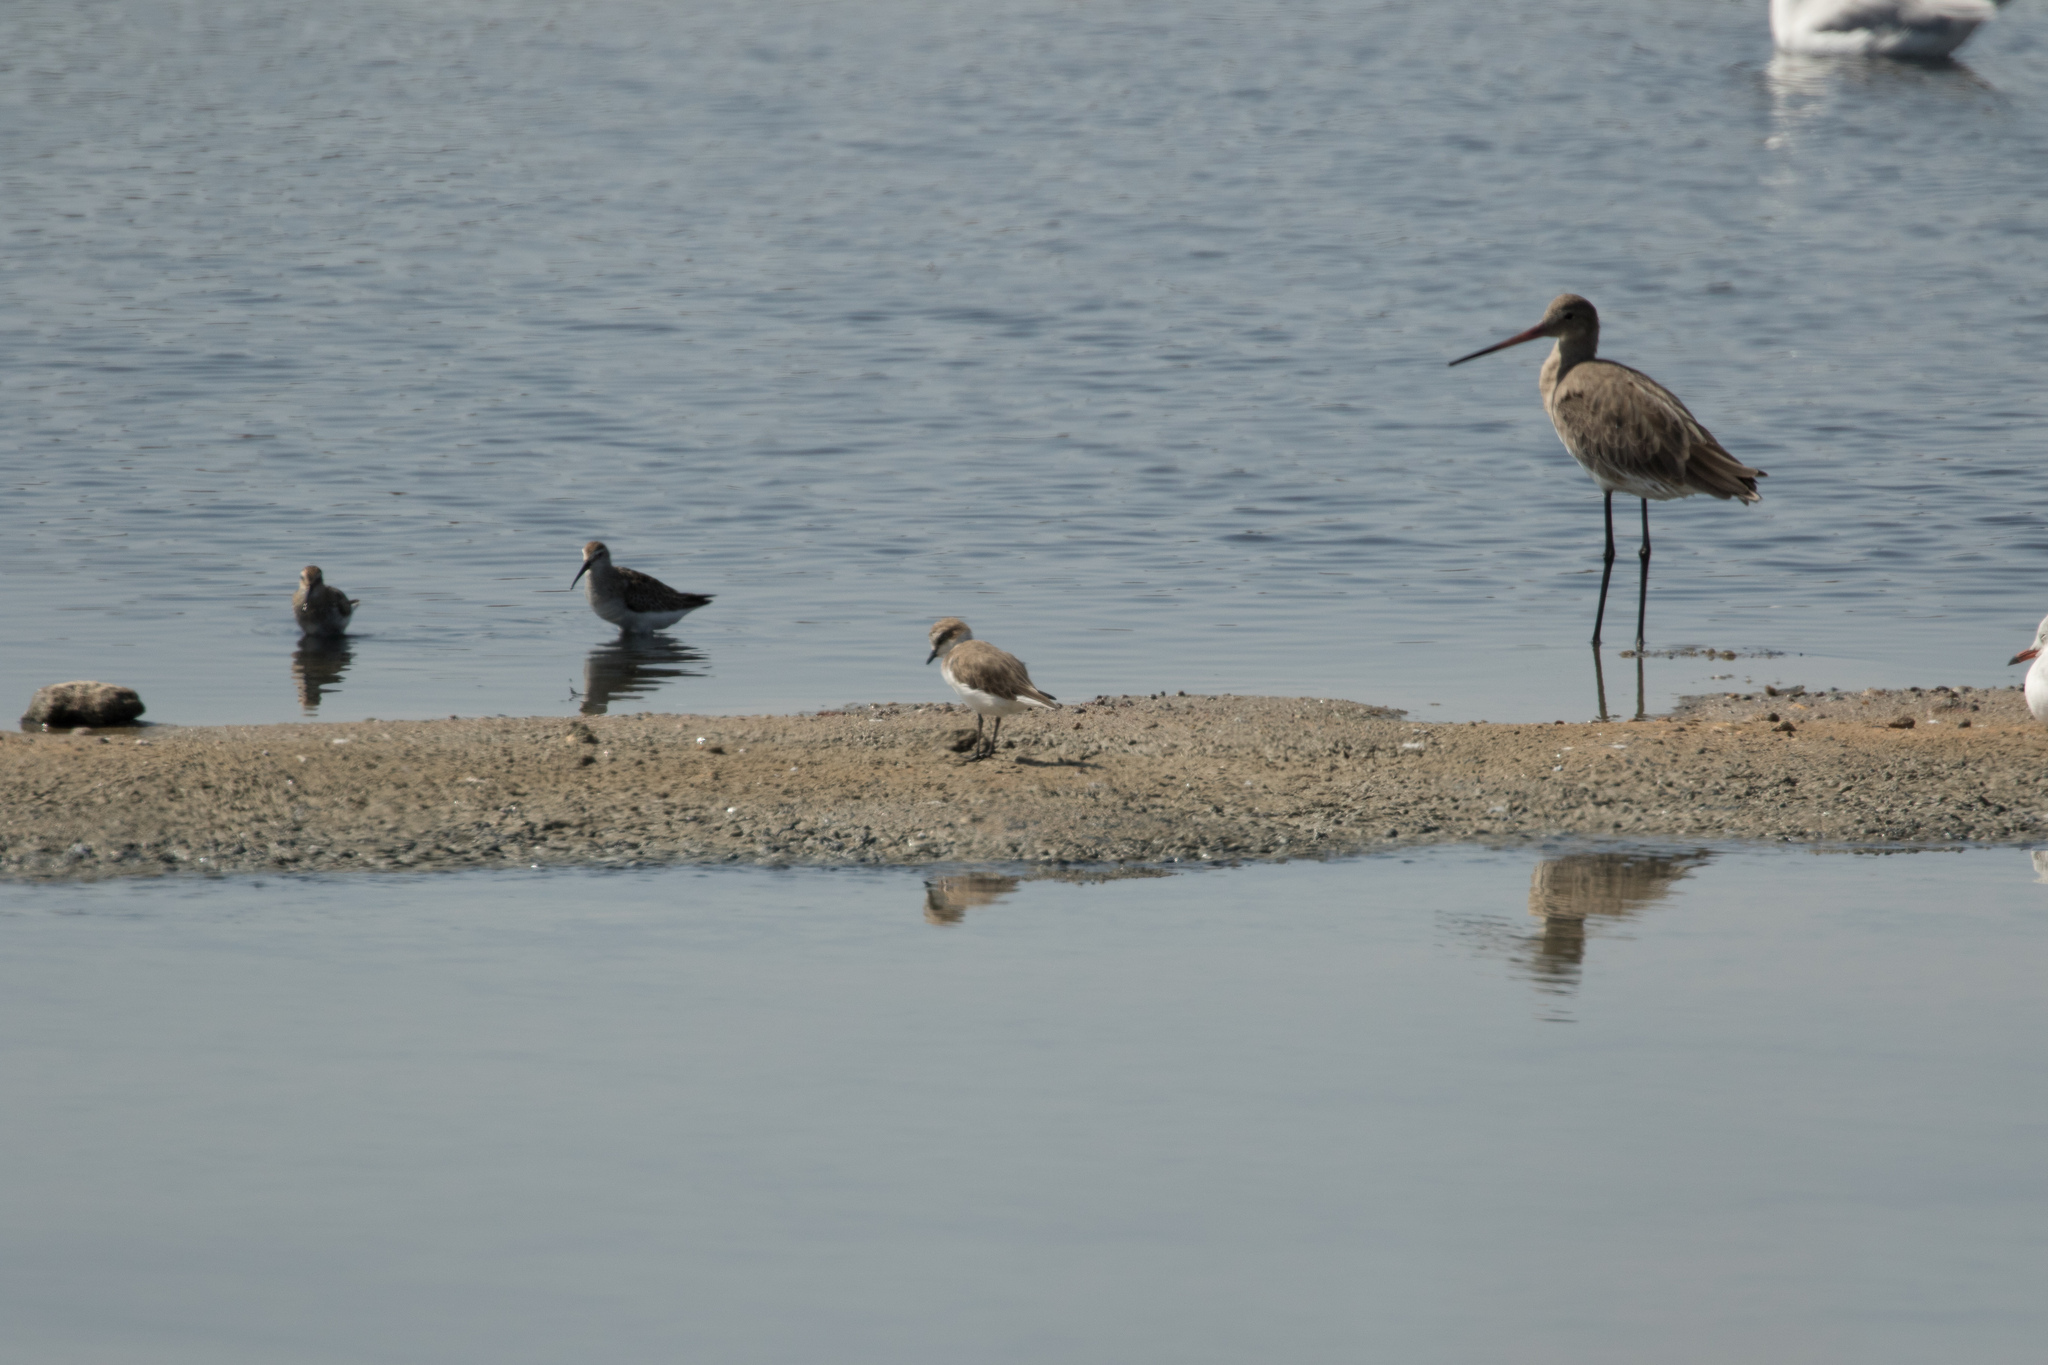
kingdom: Animalia
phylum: Chordata
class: Aves
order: Charadriiformes
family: Scolopacidae
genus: Limosa
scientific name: Limosa limosa
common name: Black-tailed godwit
